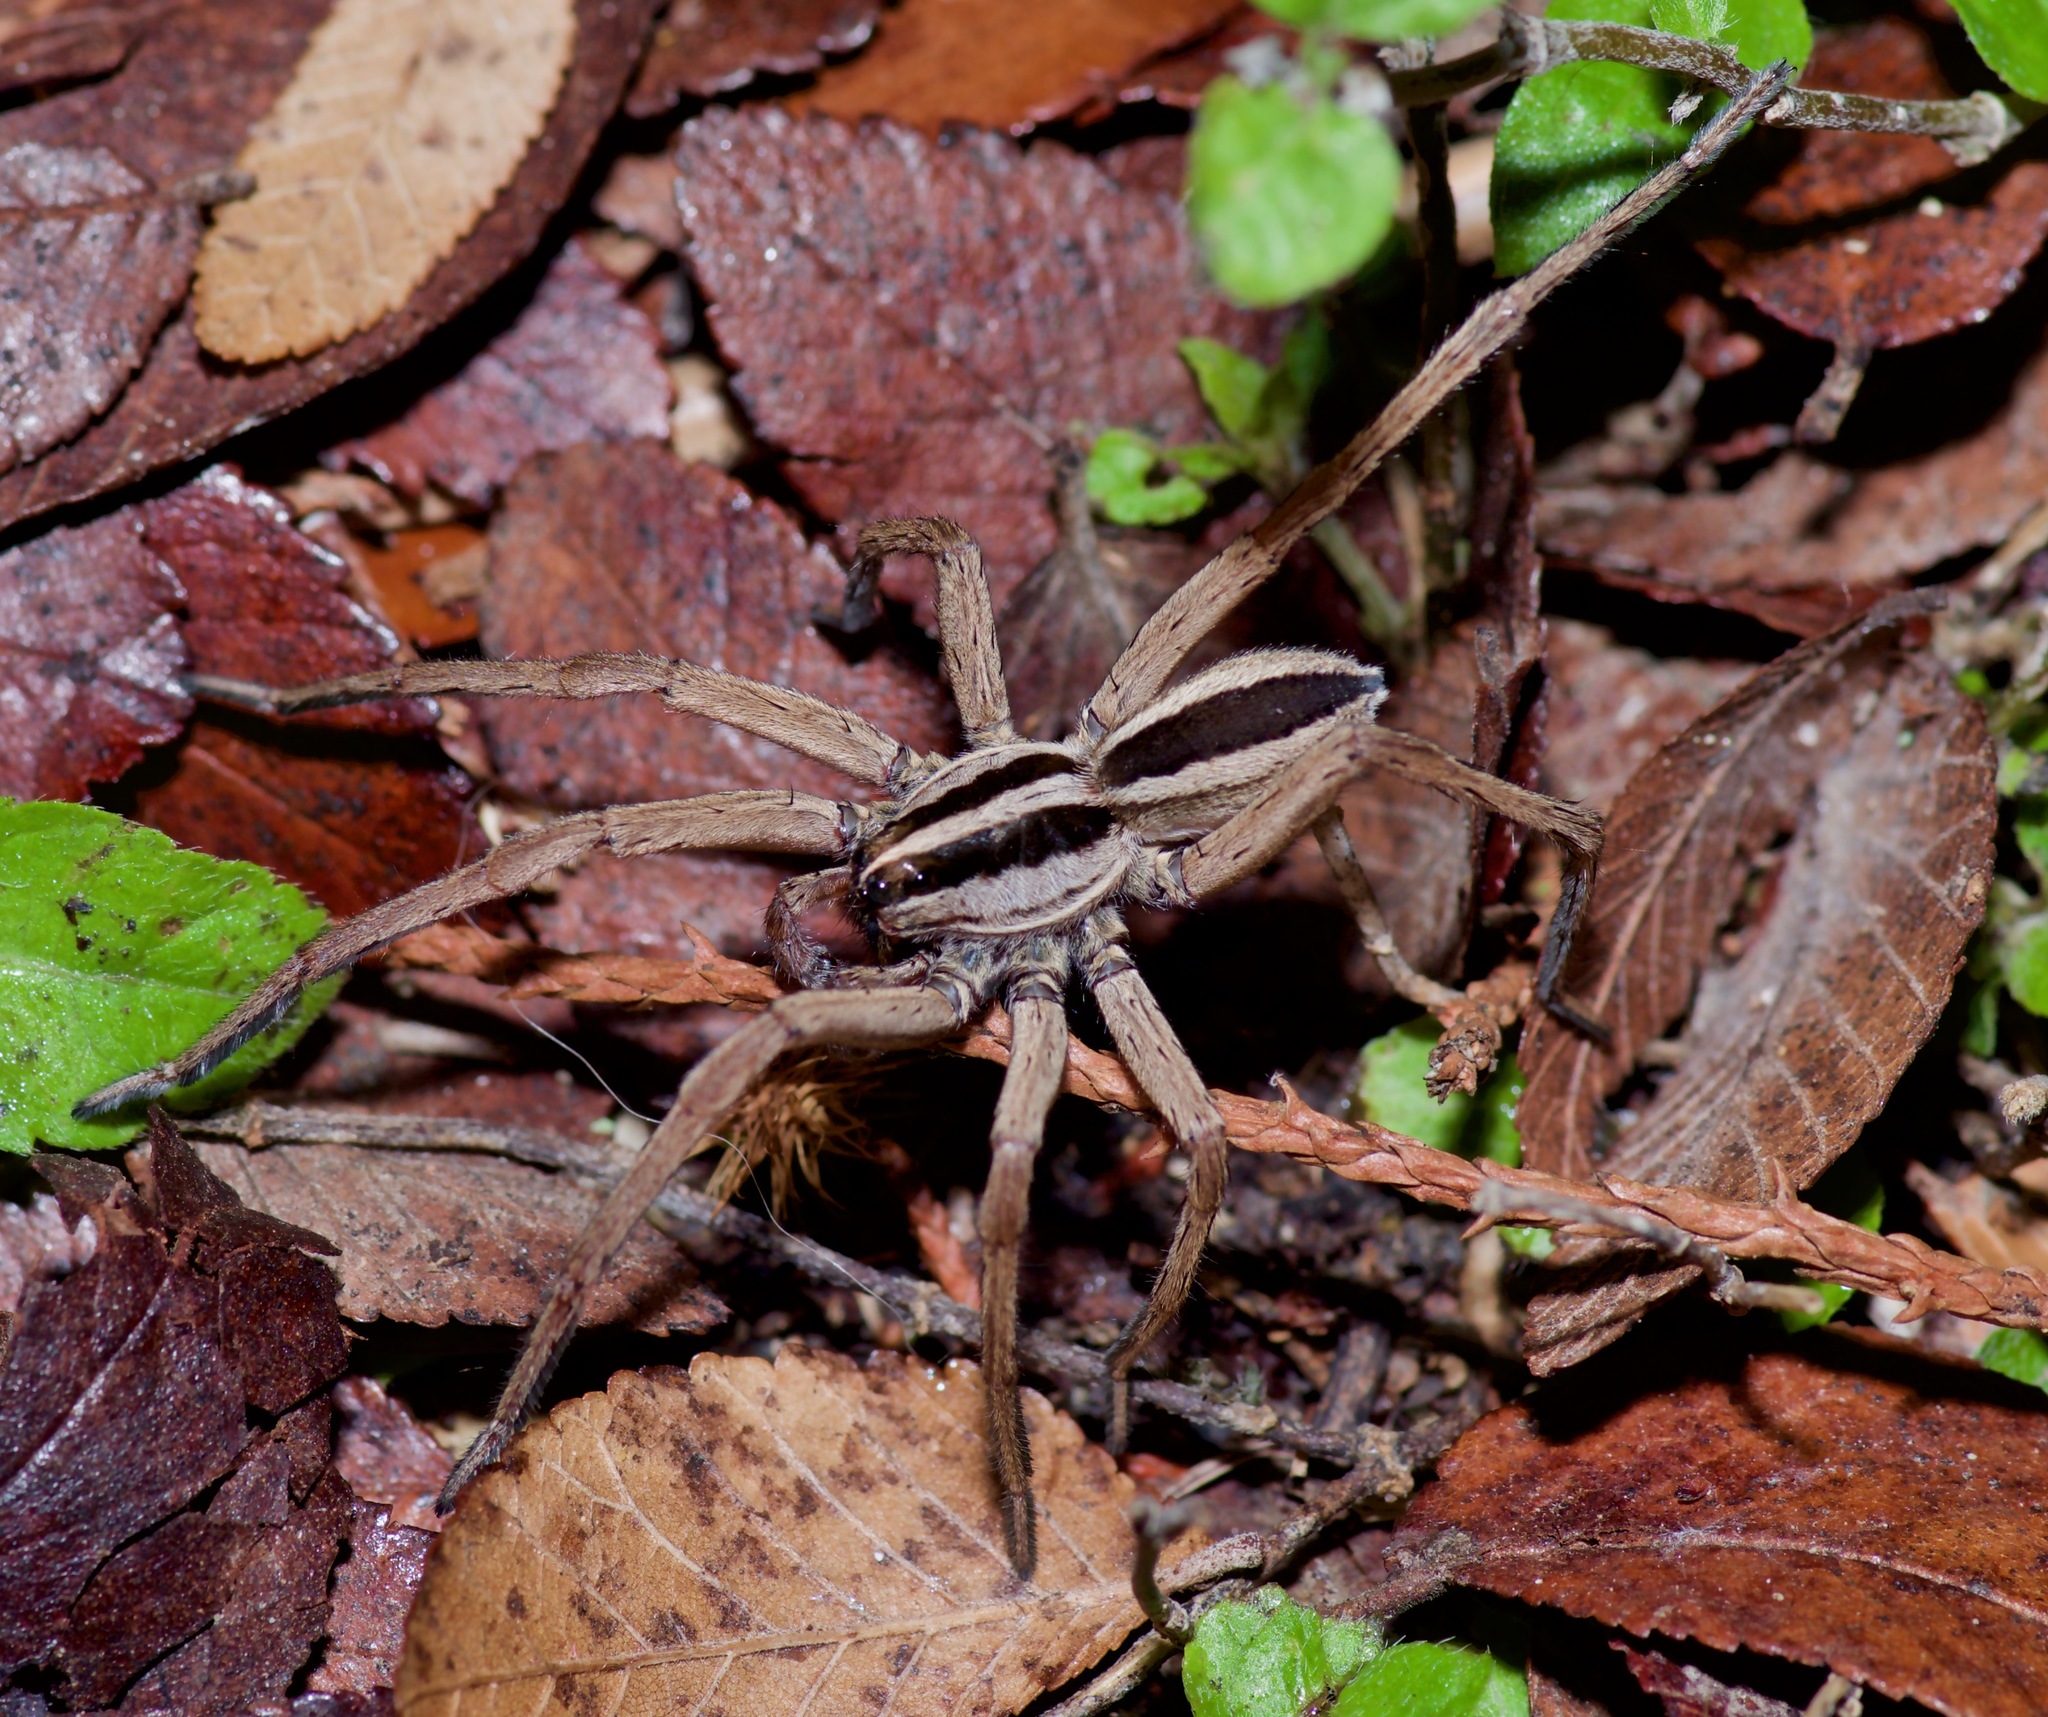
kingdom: Animalia
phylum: Arthropoda
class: Arachnida
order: Araneae
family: Lycosidae
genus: Rabidosa
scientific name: Rabidosa punctulata
